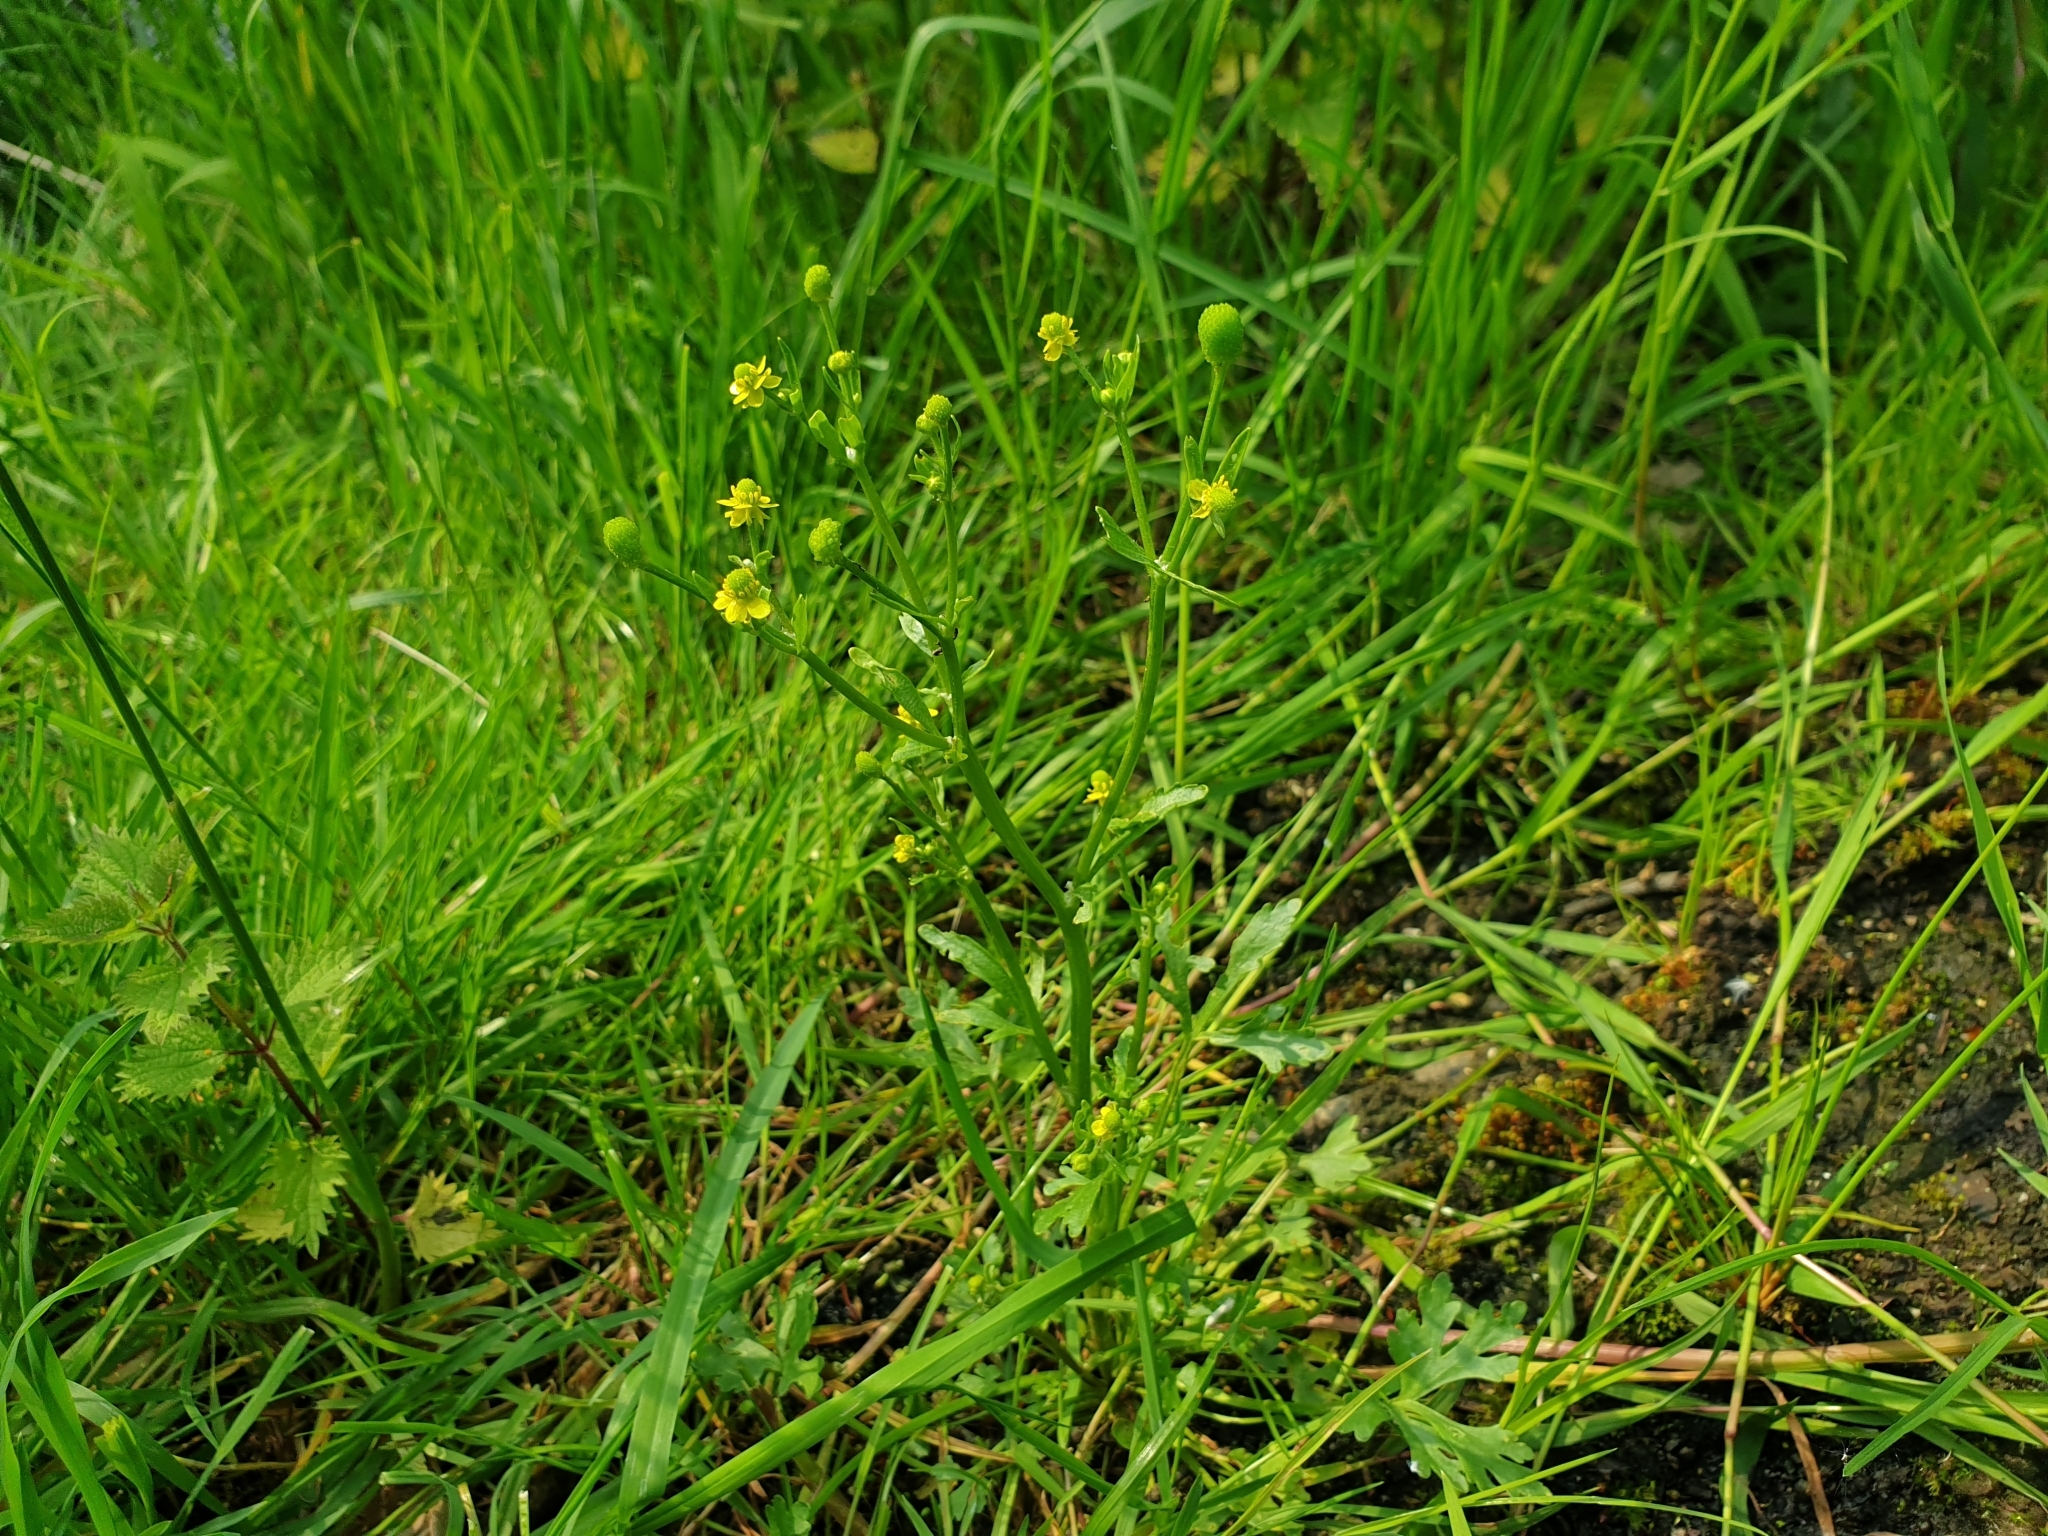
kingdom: Plantae
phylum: Tracheophyta
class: Magnoliopsida
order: Ranunculales
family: Ranunculaceae
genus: Ranunculus
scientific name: Ranunculus sceleratus
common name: Celery-leaved buttercup
